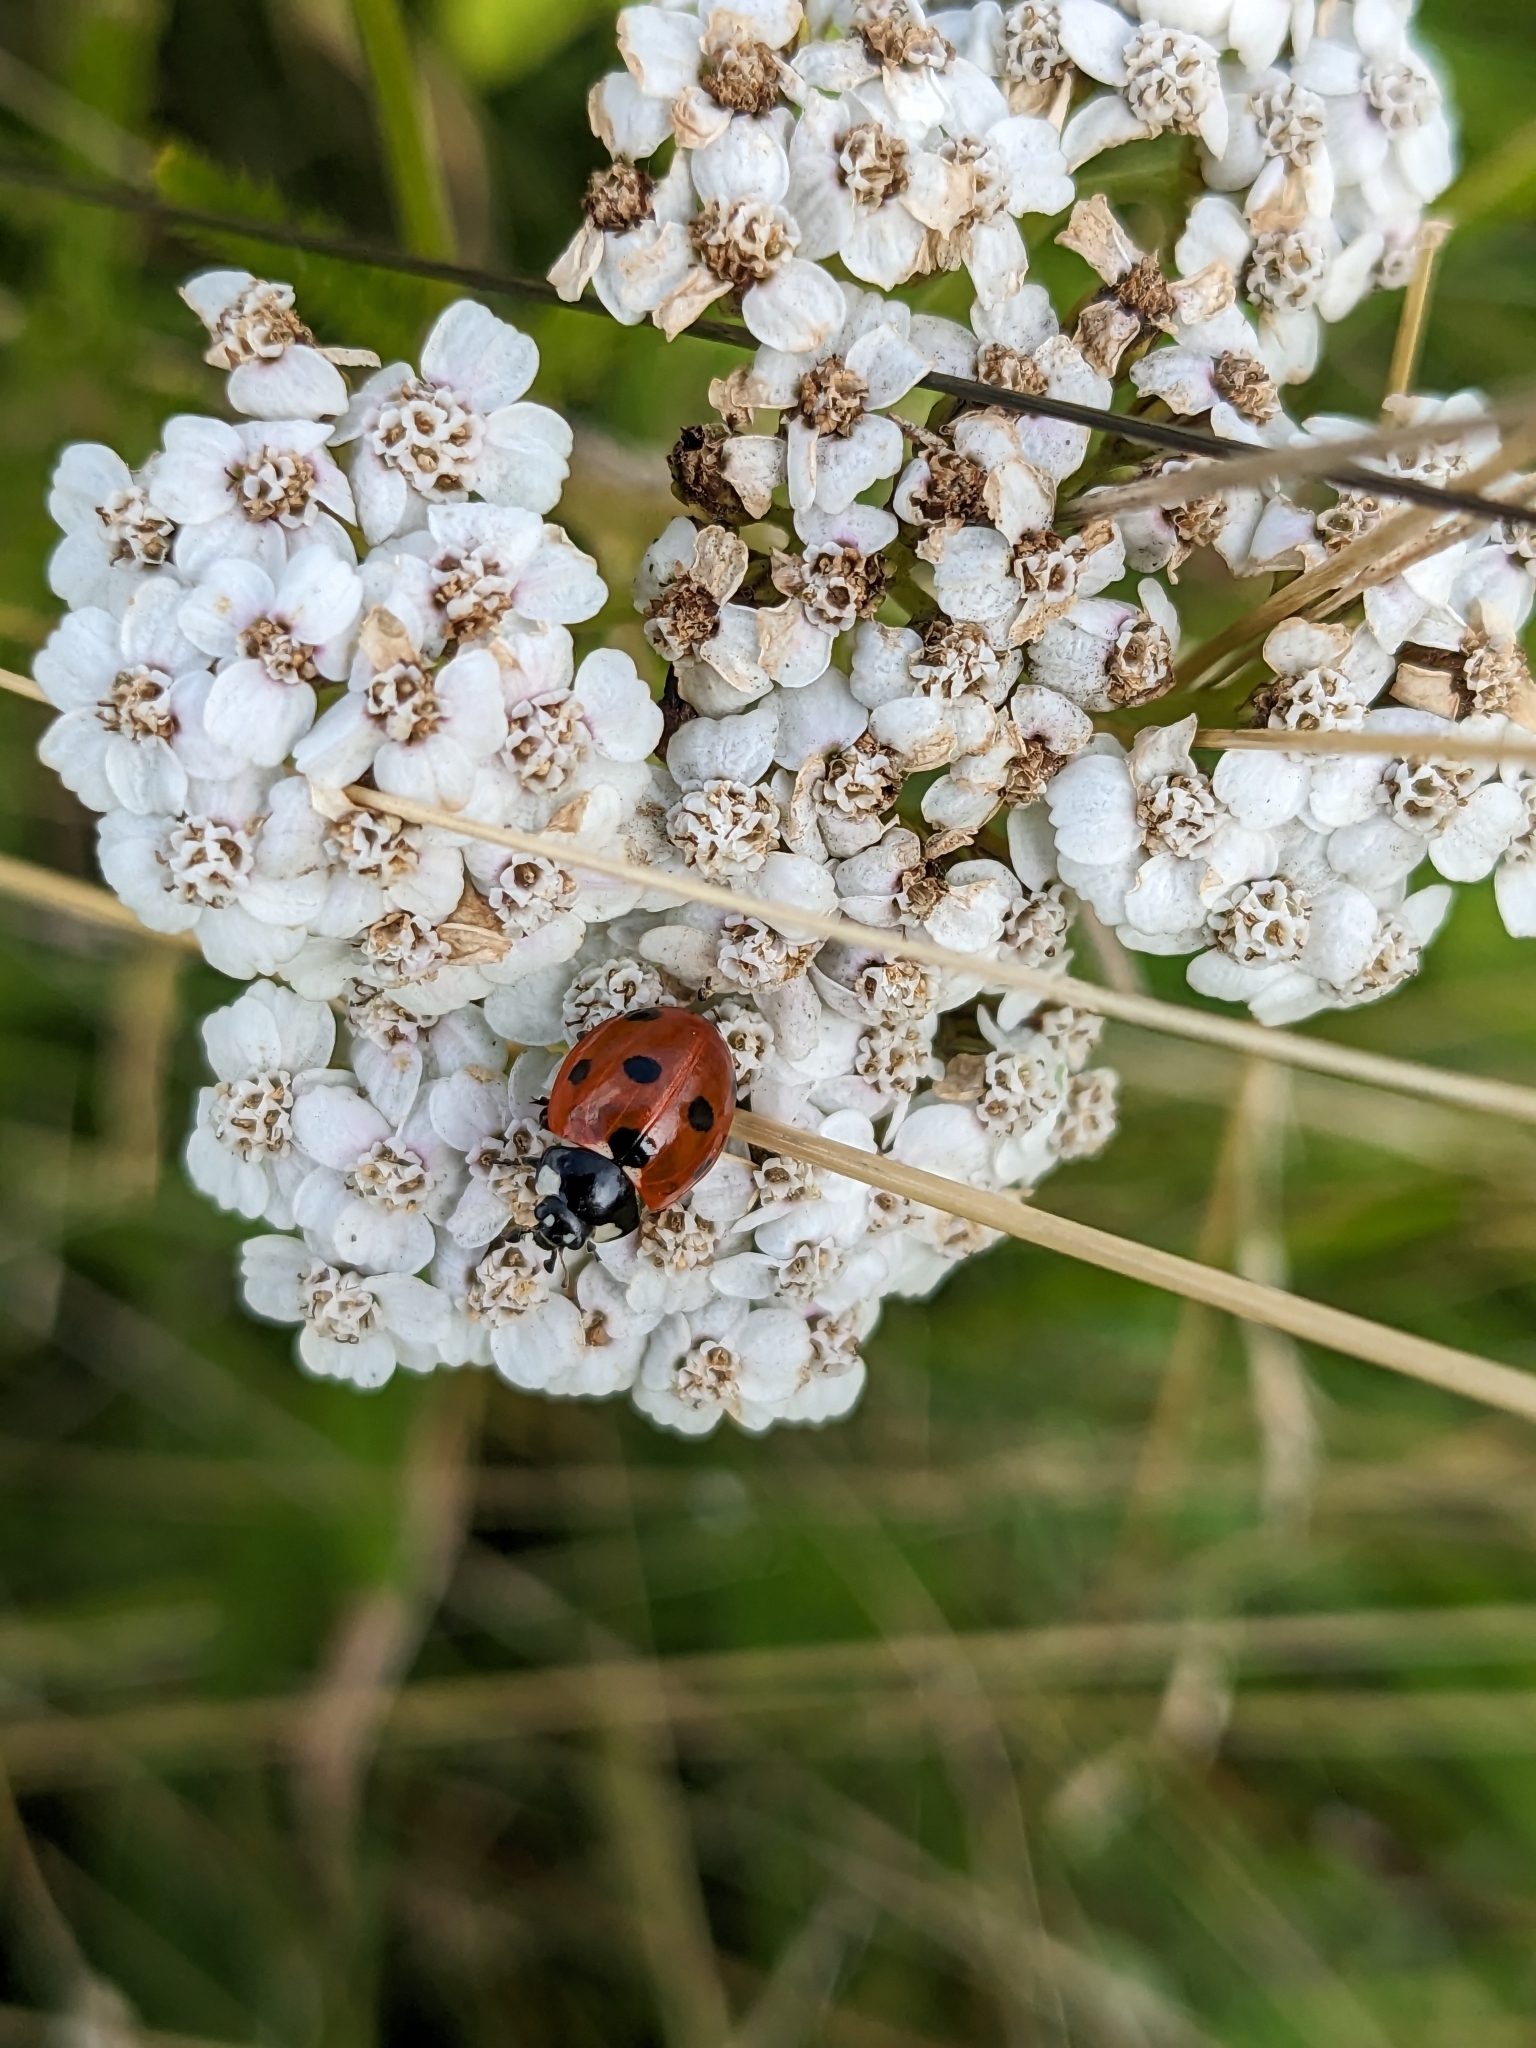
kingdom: Animalia
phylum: Arthropoda
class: Insecta
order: Coleoptera
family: Coccinellidae
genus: Coccinella
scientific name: Coccinella septempunctata
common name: Sevenspotted lady beetle
